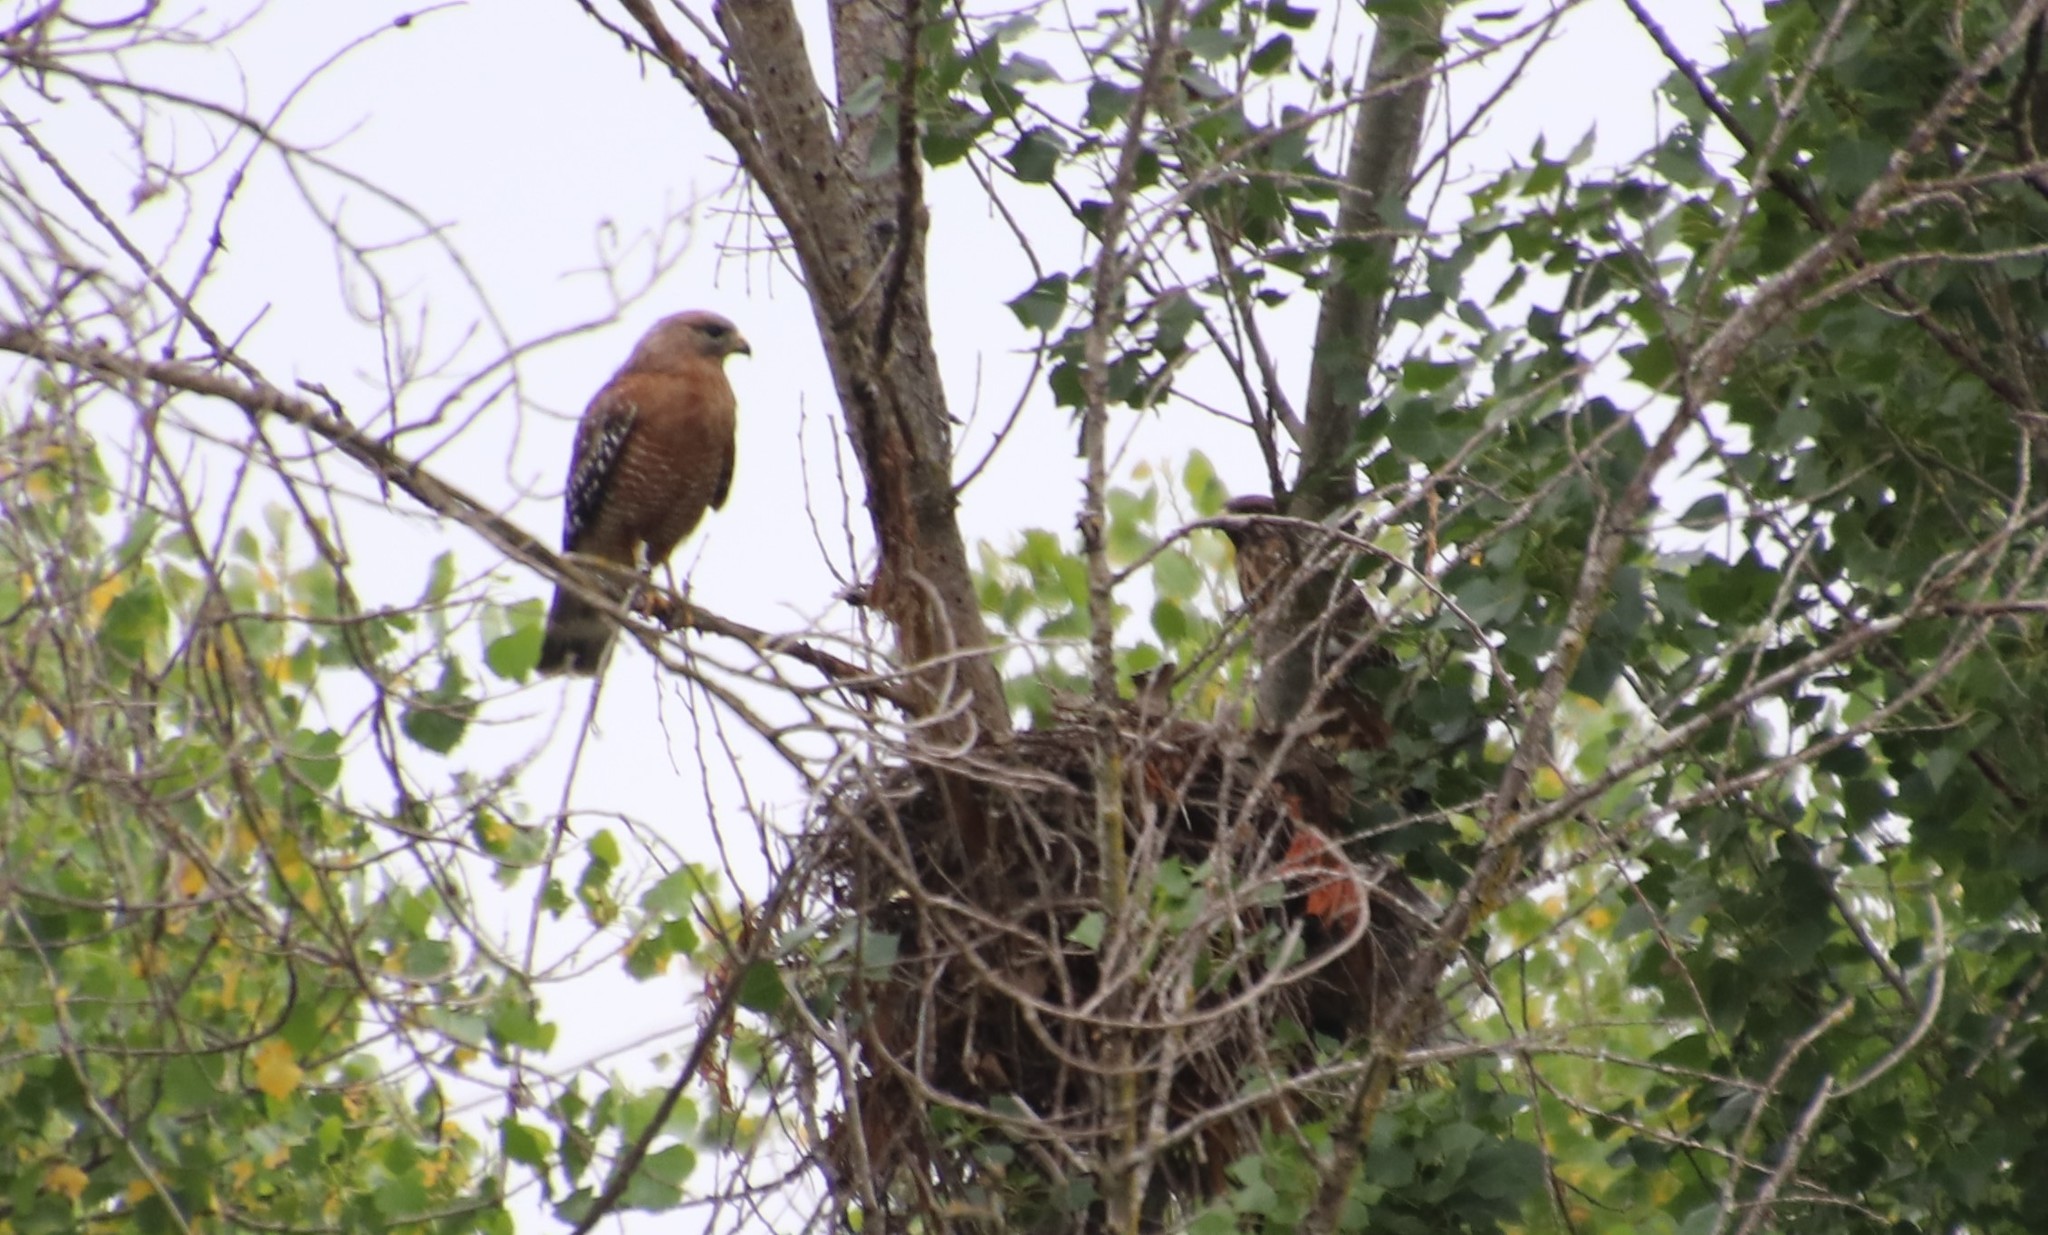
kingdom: Animalia
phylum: Chordata
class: Aves
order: Accipitriformes
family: Accipitridae
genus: Buteo
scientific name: Buteo lineatus
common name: Red-shouldered hawk
